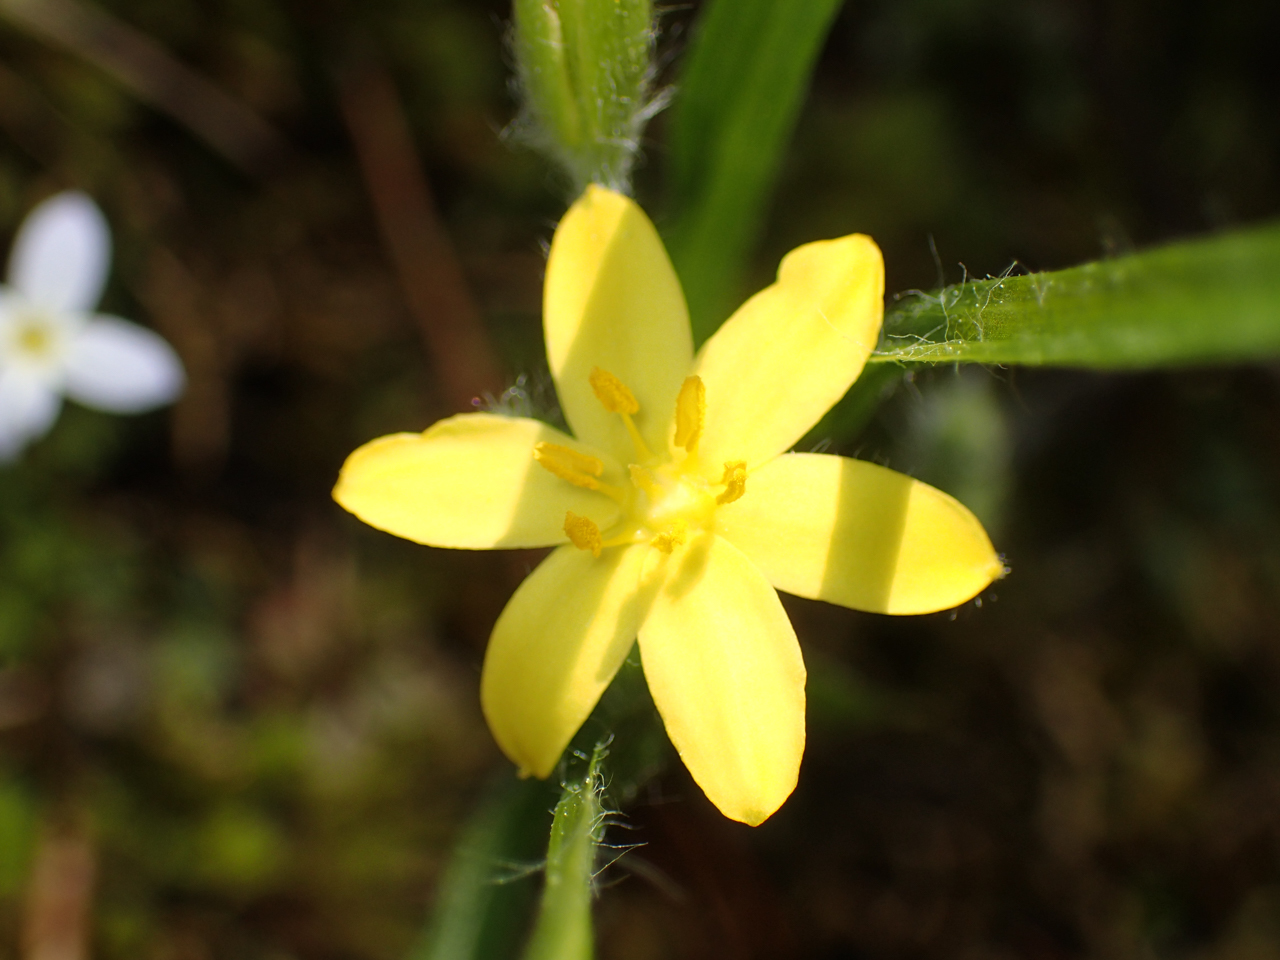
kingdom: Plantae
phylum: Tracheophyta
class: Liliopsida
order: Asparagales
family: Hypoxidaceae
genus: Hypoxis
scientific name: Hypoxis hirsuta
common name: Common goldstar
